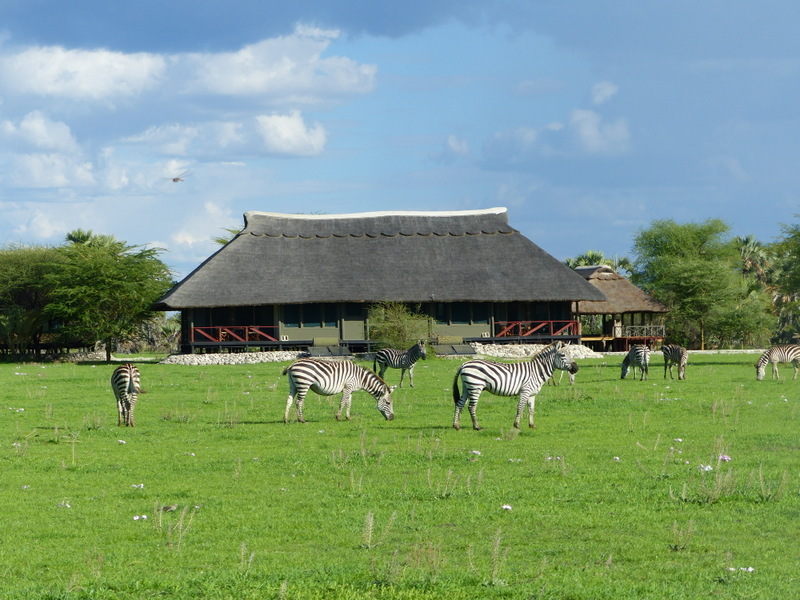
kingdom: Animalia
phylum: Chordata
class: Mammalia
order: Perissodactyla
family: Equidae
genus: Equus
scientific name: Equus quagga
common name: Plains zebra
